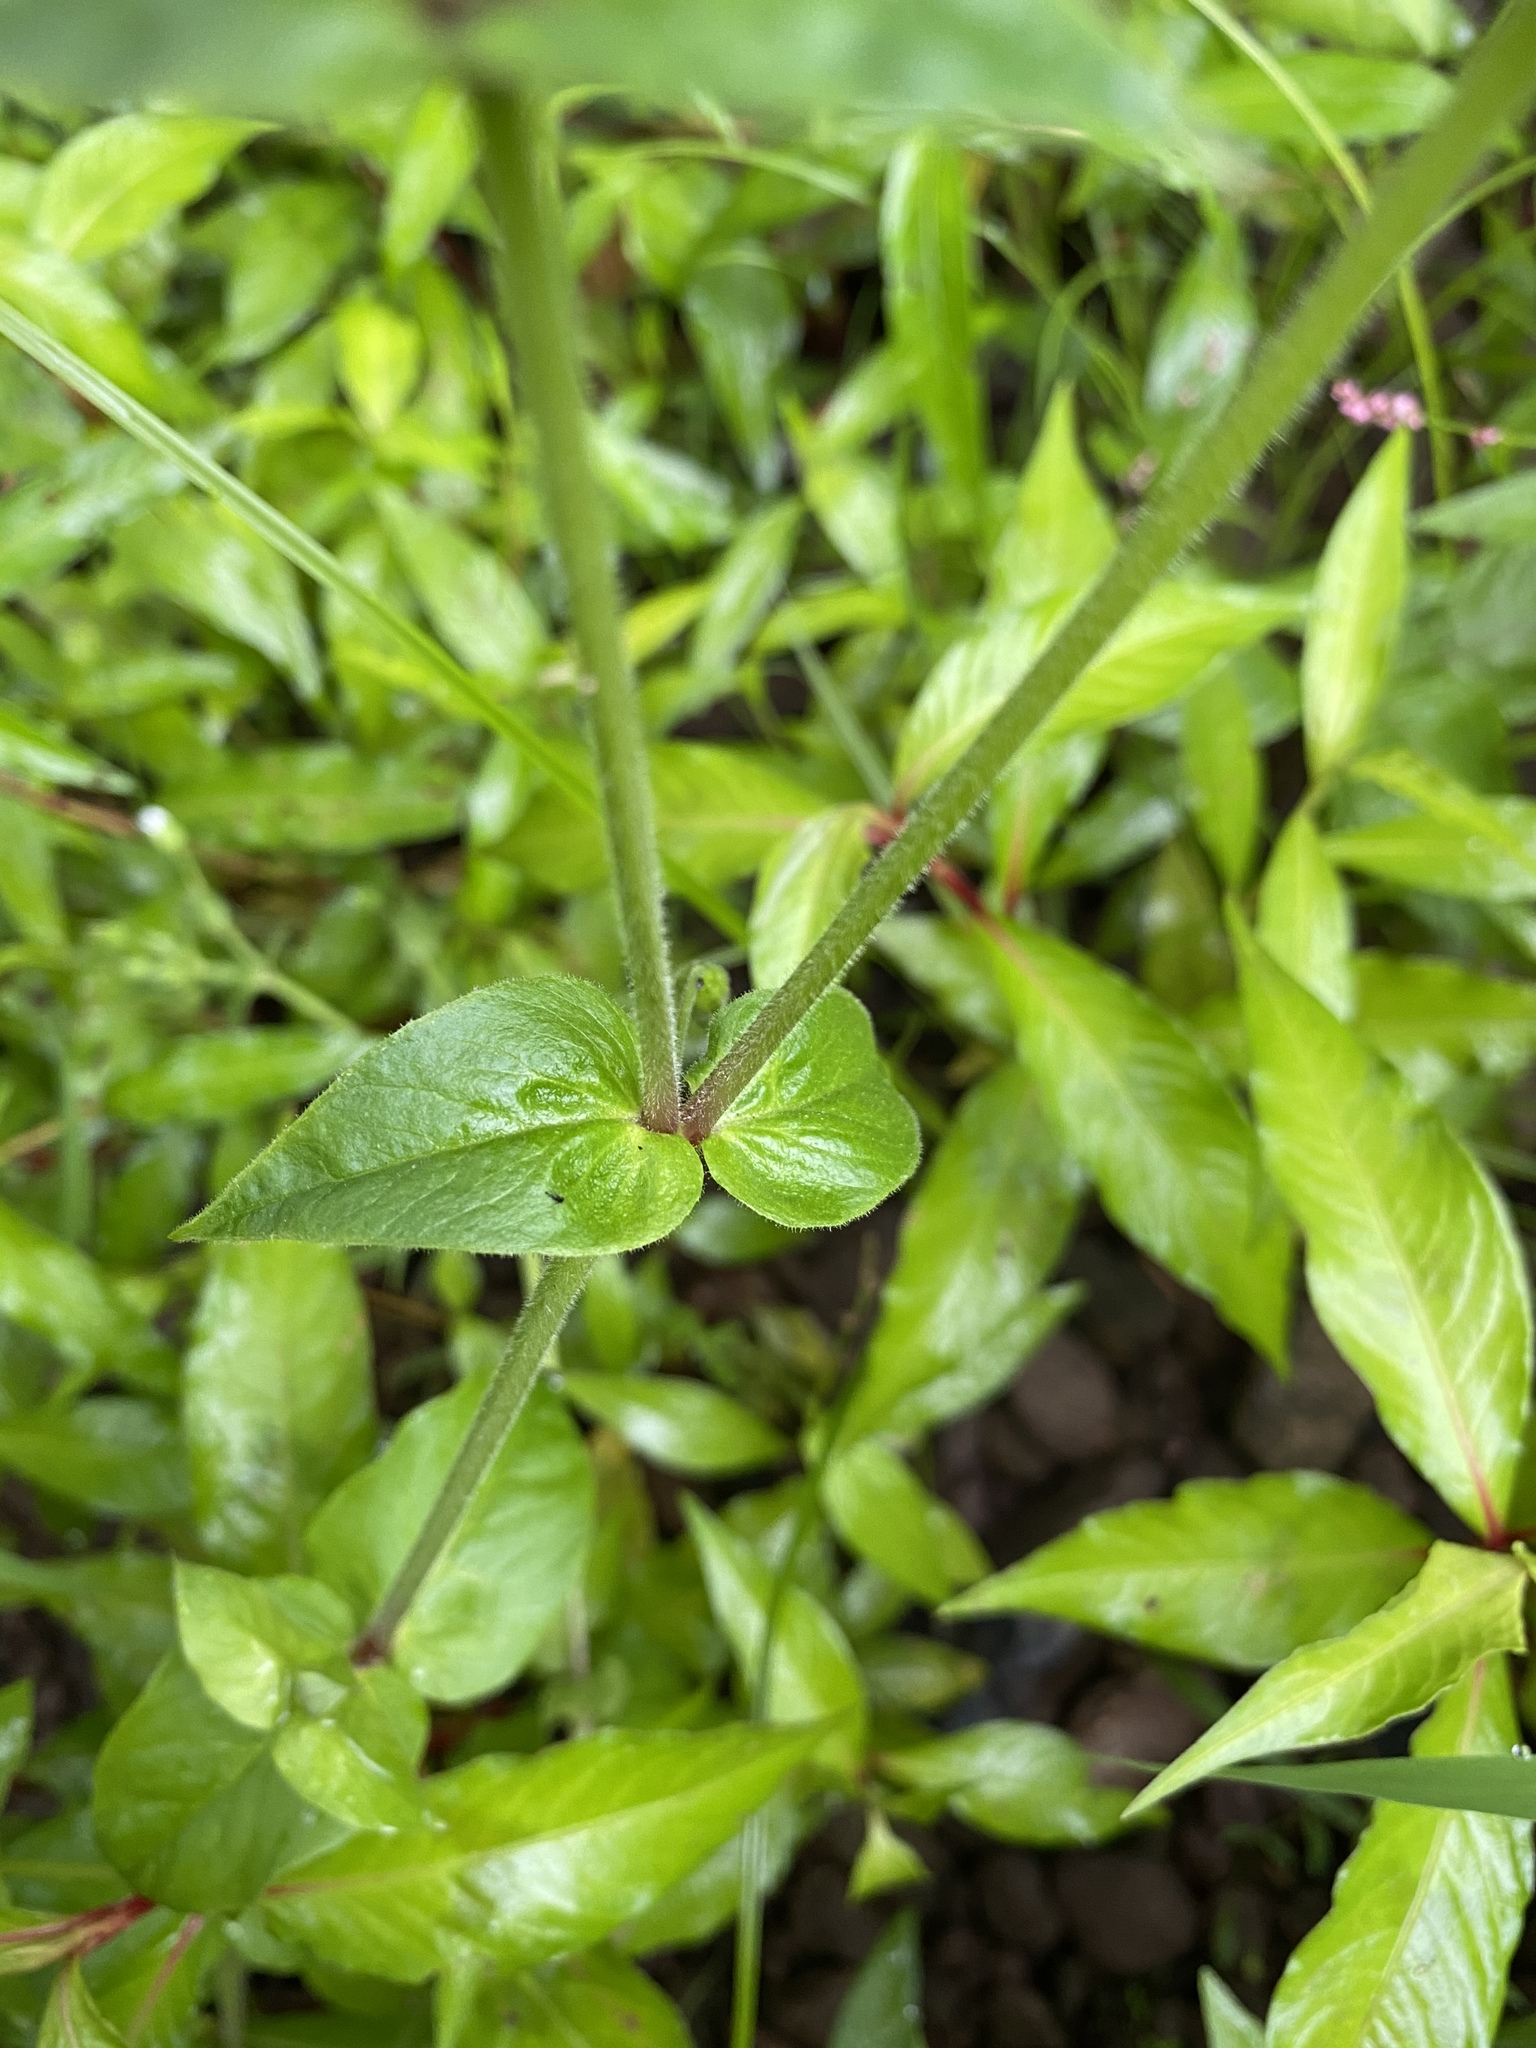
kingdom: Plantae
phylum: Tracheophyta
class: Magnoliopsida
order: Caryophyllales
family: Caryophyllaceae
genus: Stellaria
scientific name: Stellaria aquatica
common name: Water chickweed
